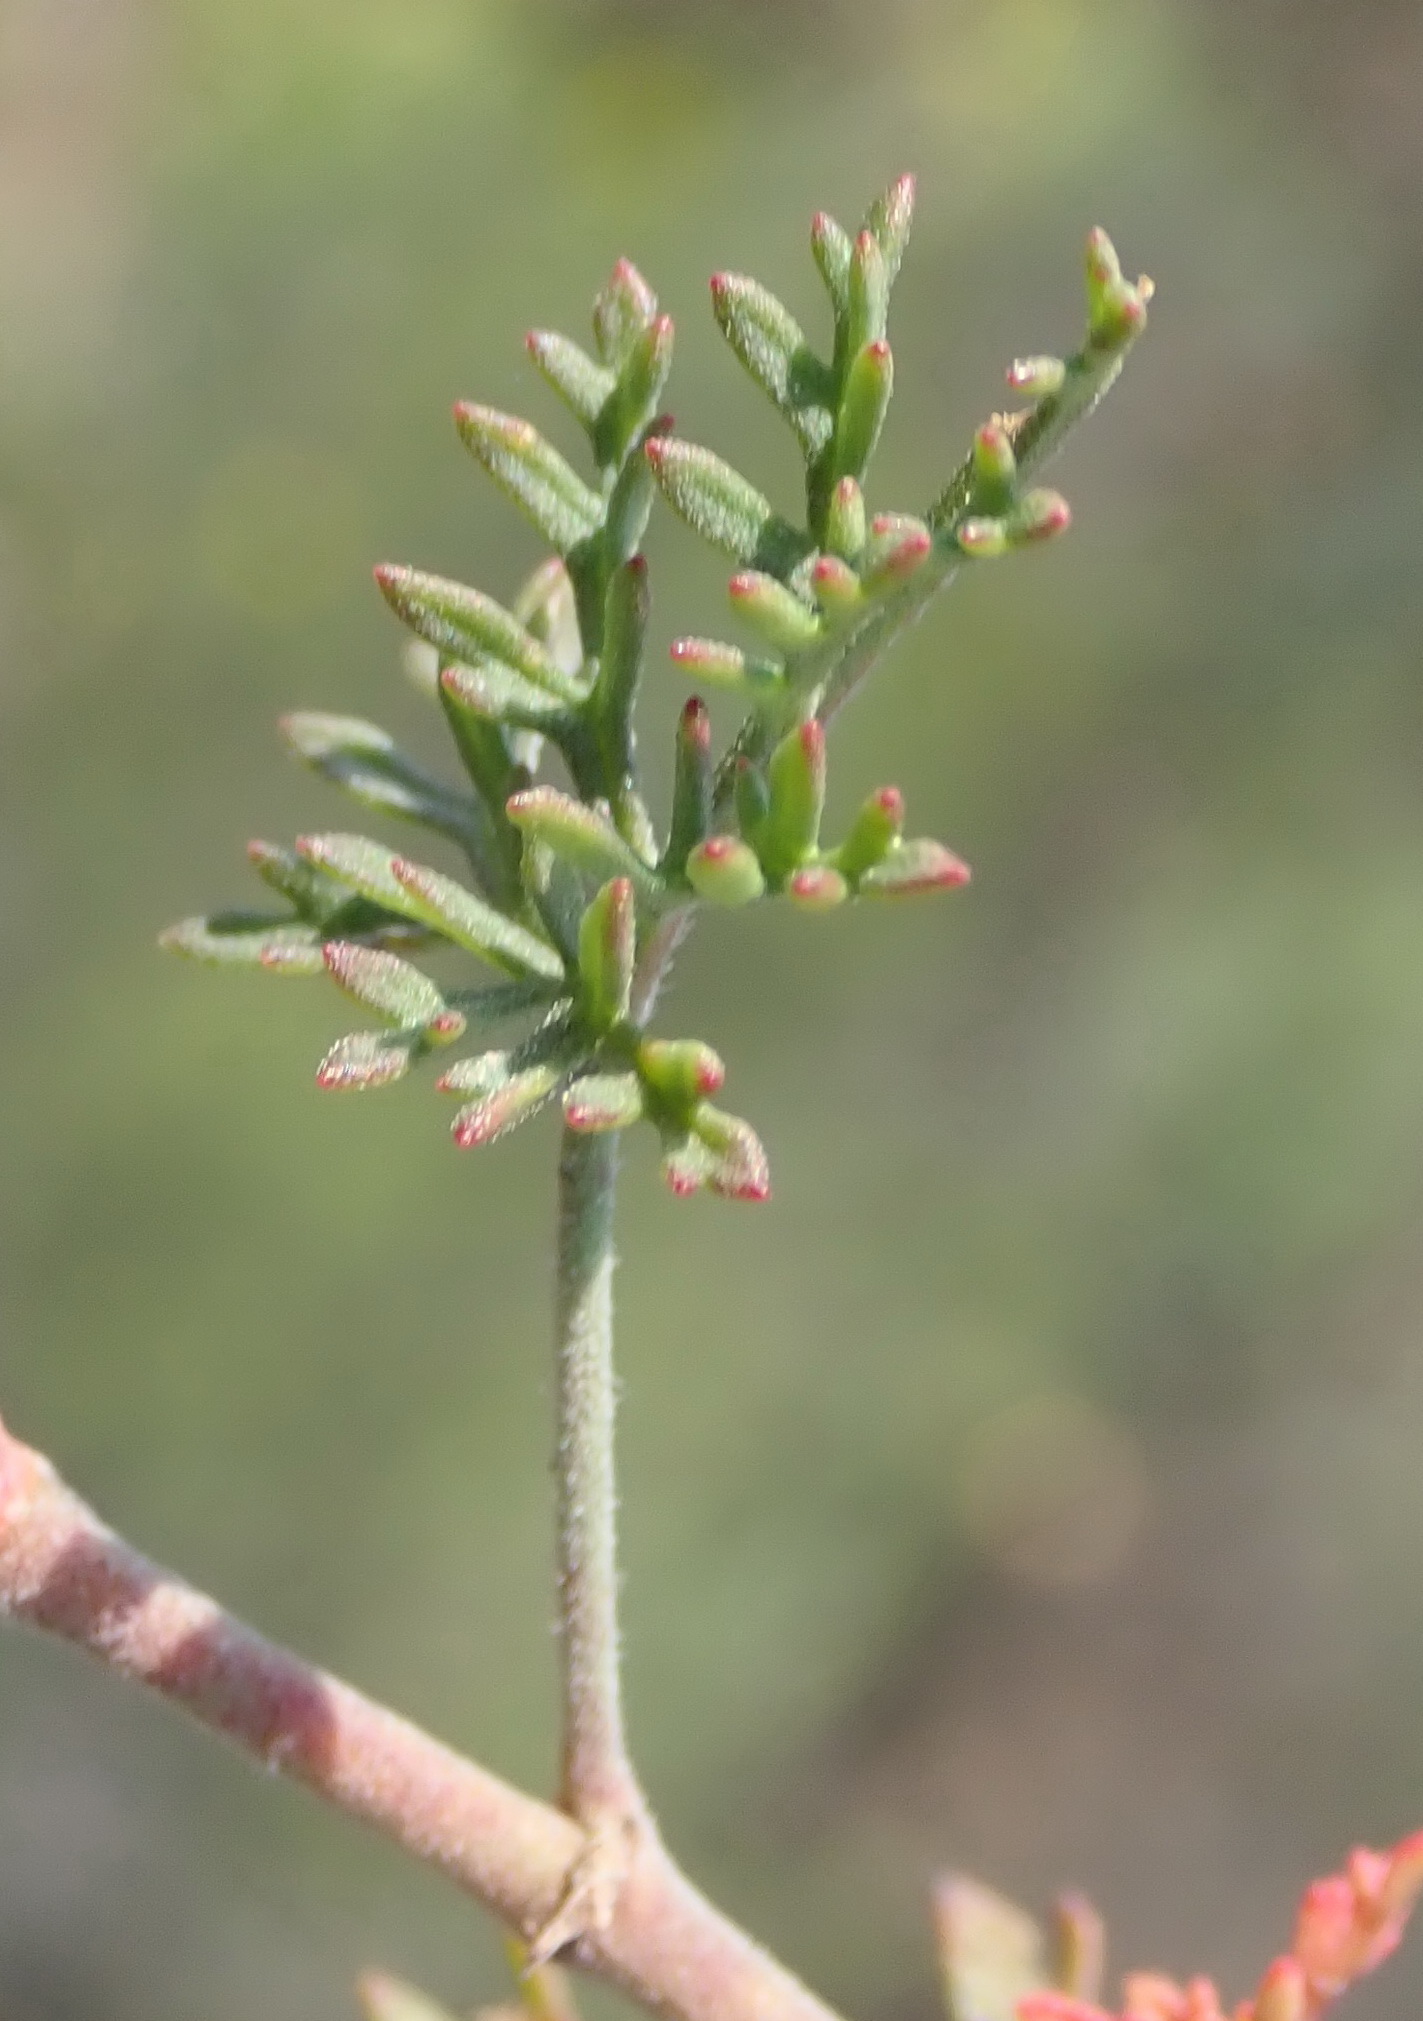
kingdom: Plantae
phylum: Tracheophyta
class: Magnoliopsida
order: Geraniales
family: Geraniaceae
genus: Pelargonium
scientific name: Pelargonium longicaule
